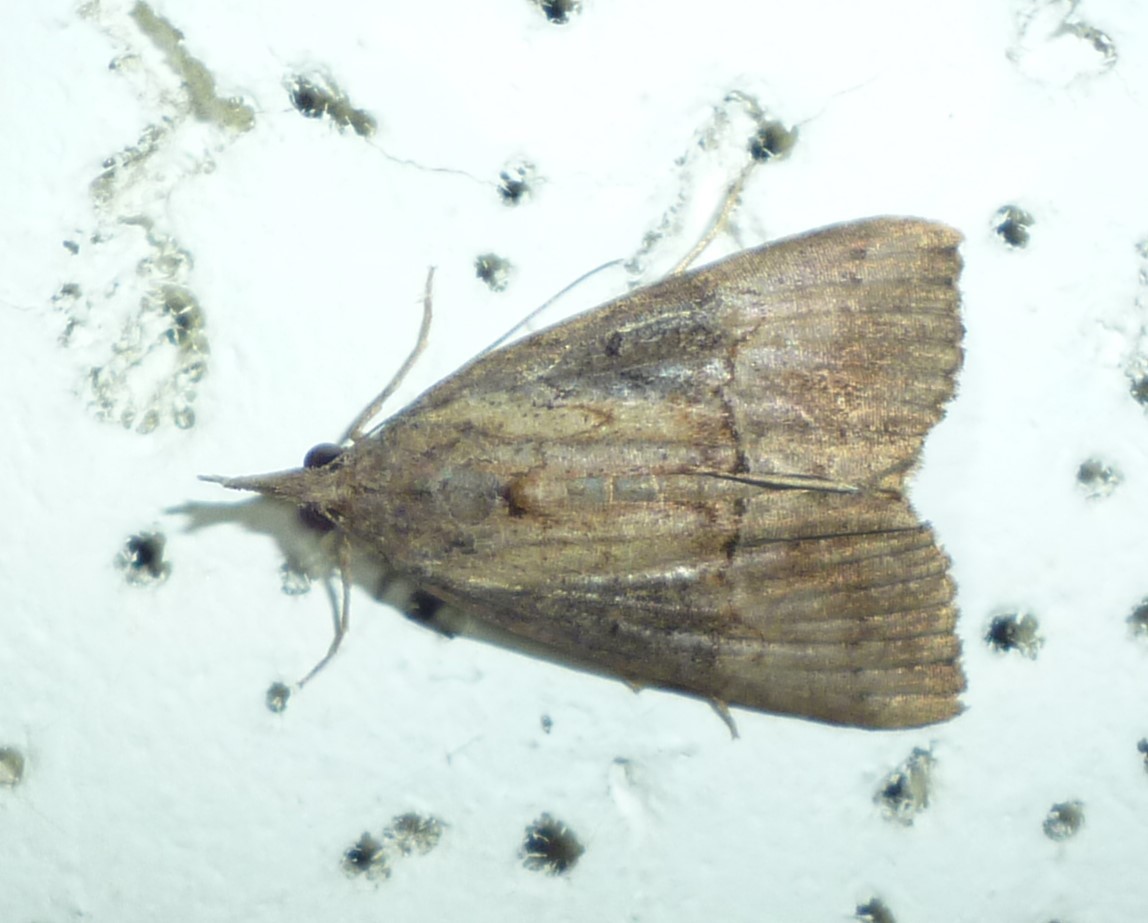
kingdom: Animalia
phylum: Arthropoda
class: Insecta
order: Lepidoptera
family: Erebidae
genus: Hypena
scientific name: Hypena scabra
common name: Green cloverworm
